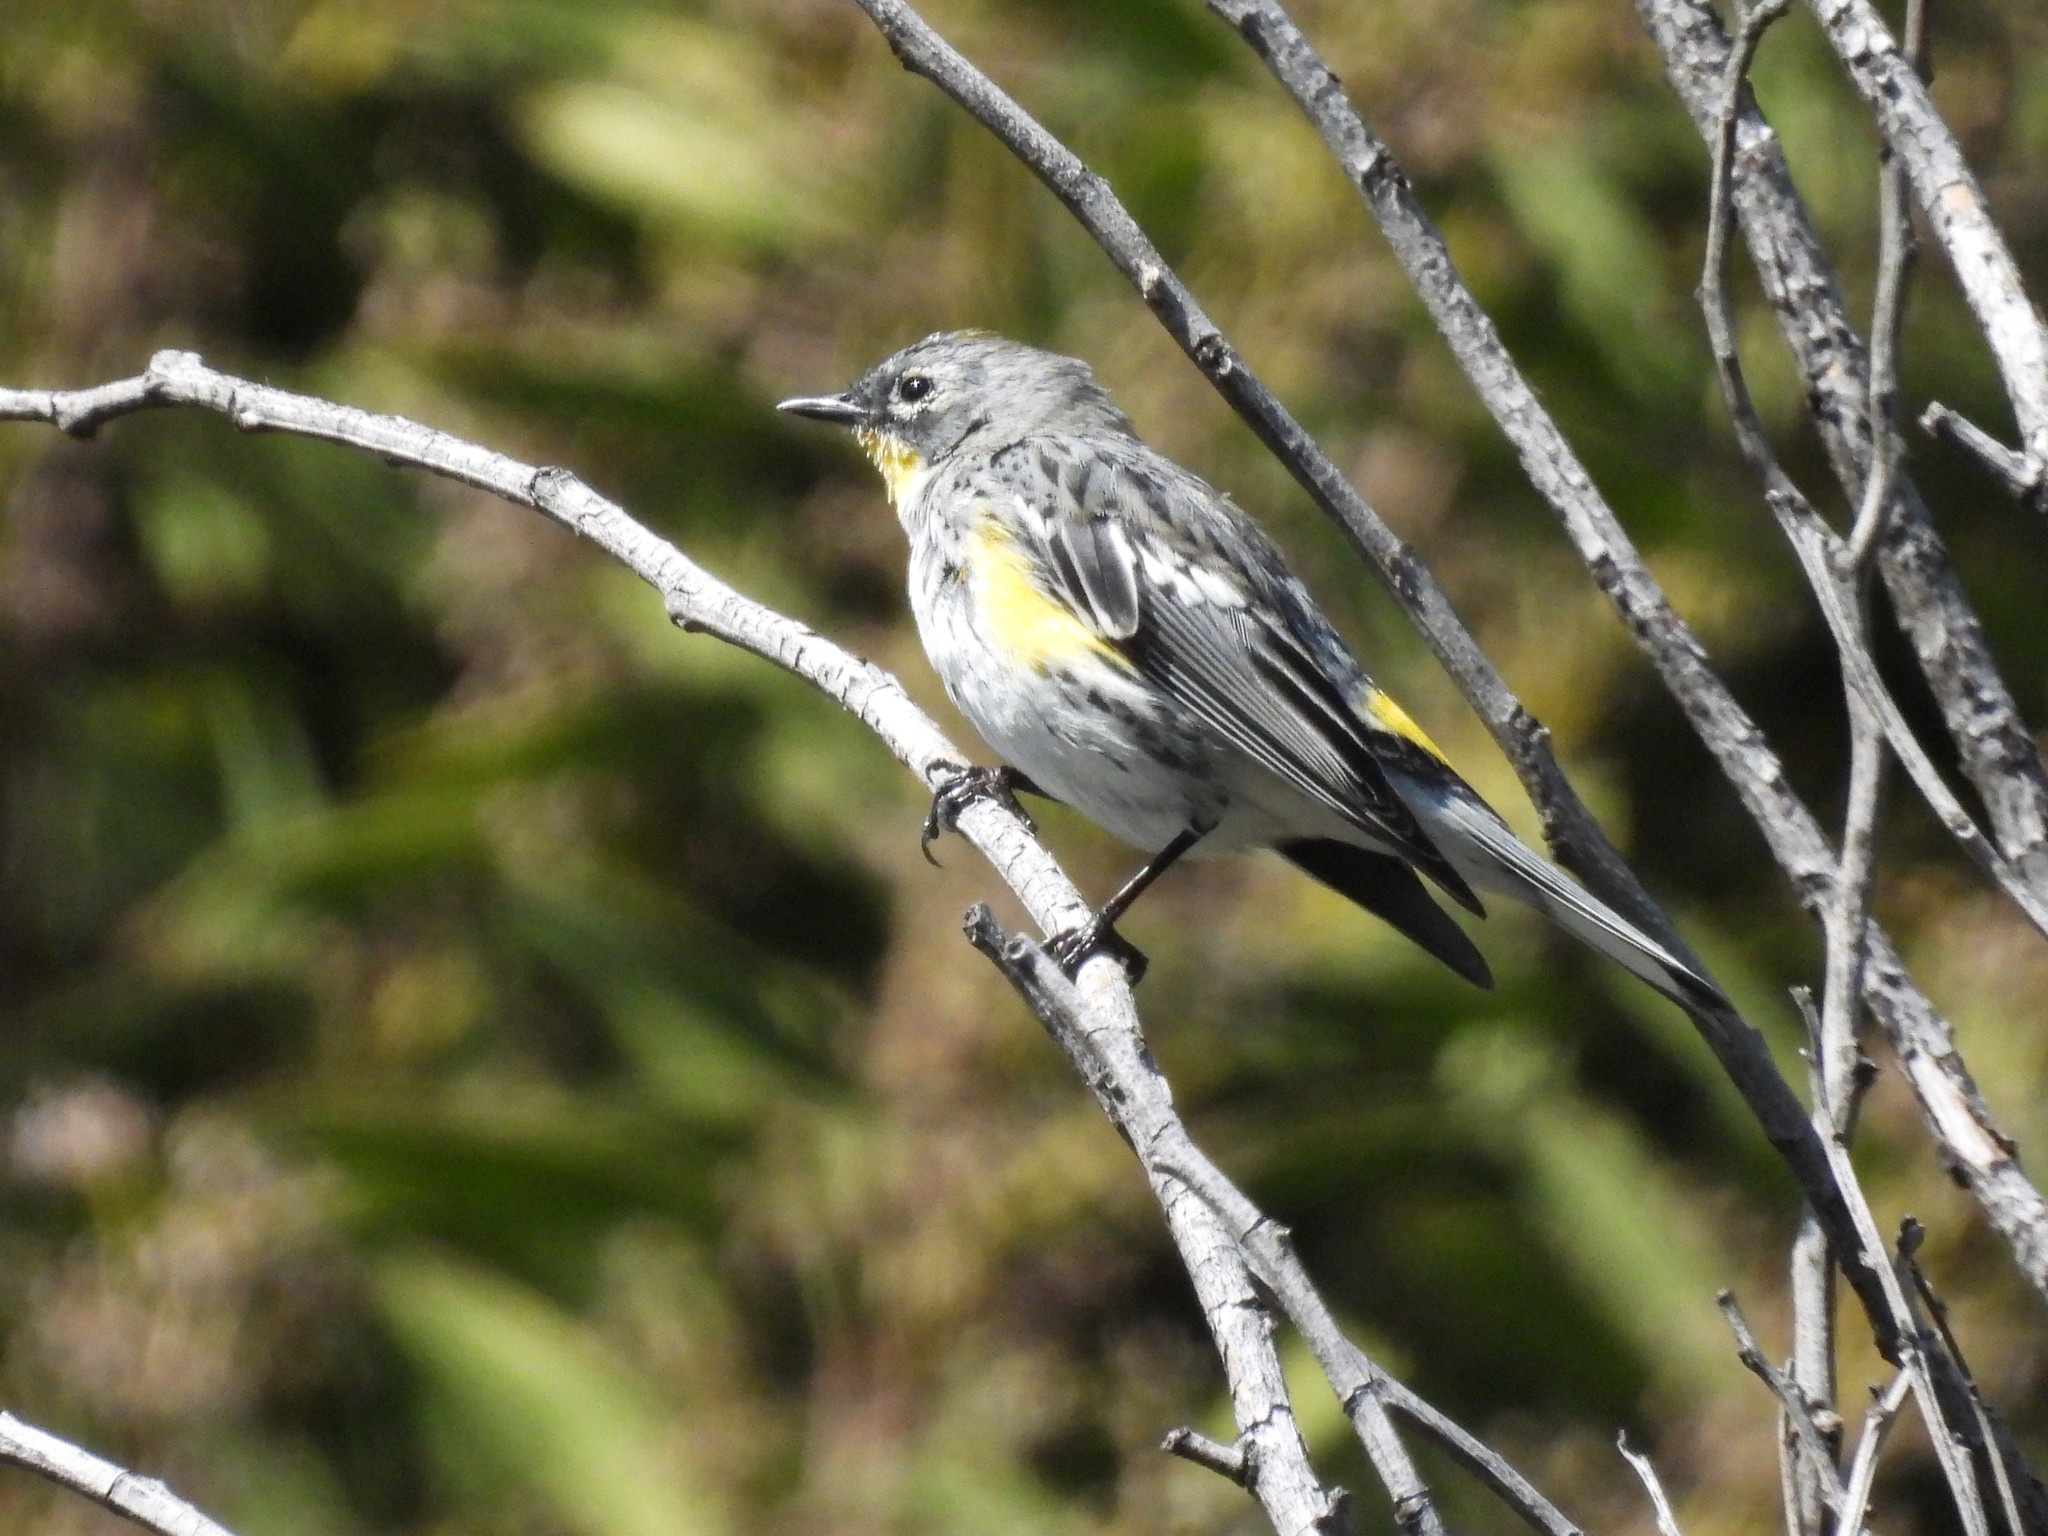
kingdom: Animalia
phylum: Chordata
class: Aves
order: Passeriformes
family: Parulidae
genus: Setophaga
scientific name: Setophaga coronata
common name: Myrtle warbler
